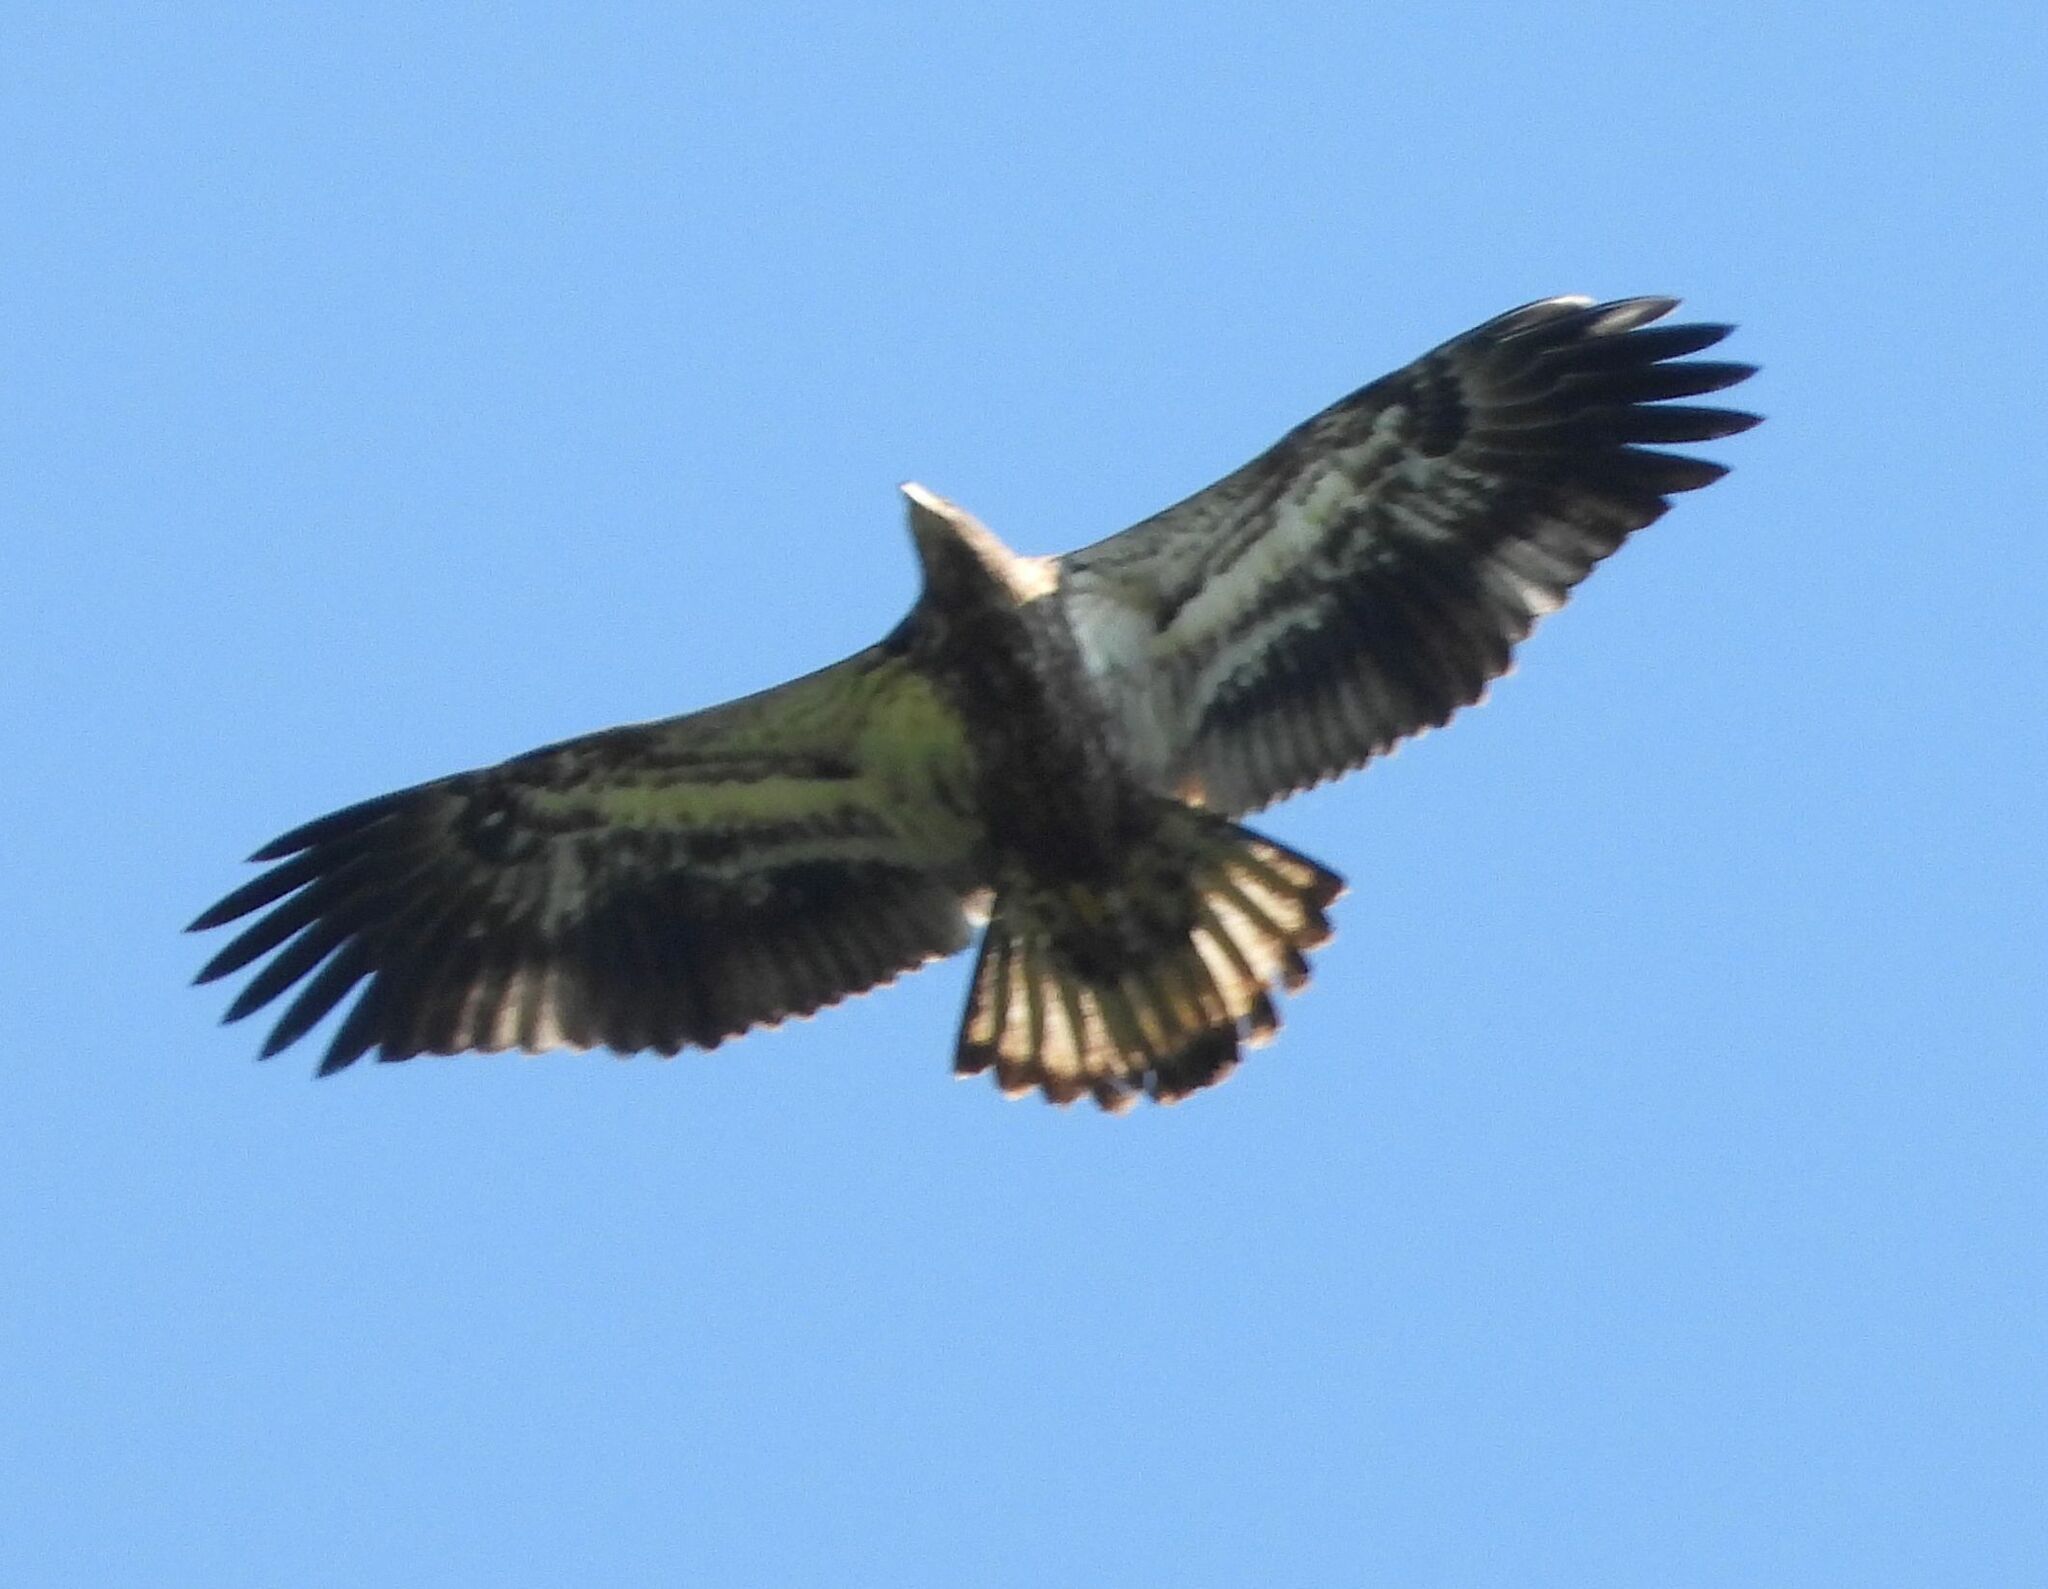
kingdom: Animalia
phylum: Chordata
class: Aves
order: Accipitriformes
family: Accipitridae
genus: Haliaeetus
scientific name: Haliaeetus leucocephalus
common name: Bald eagle
